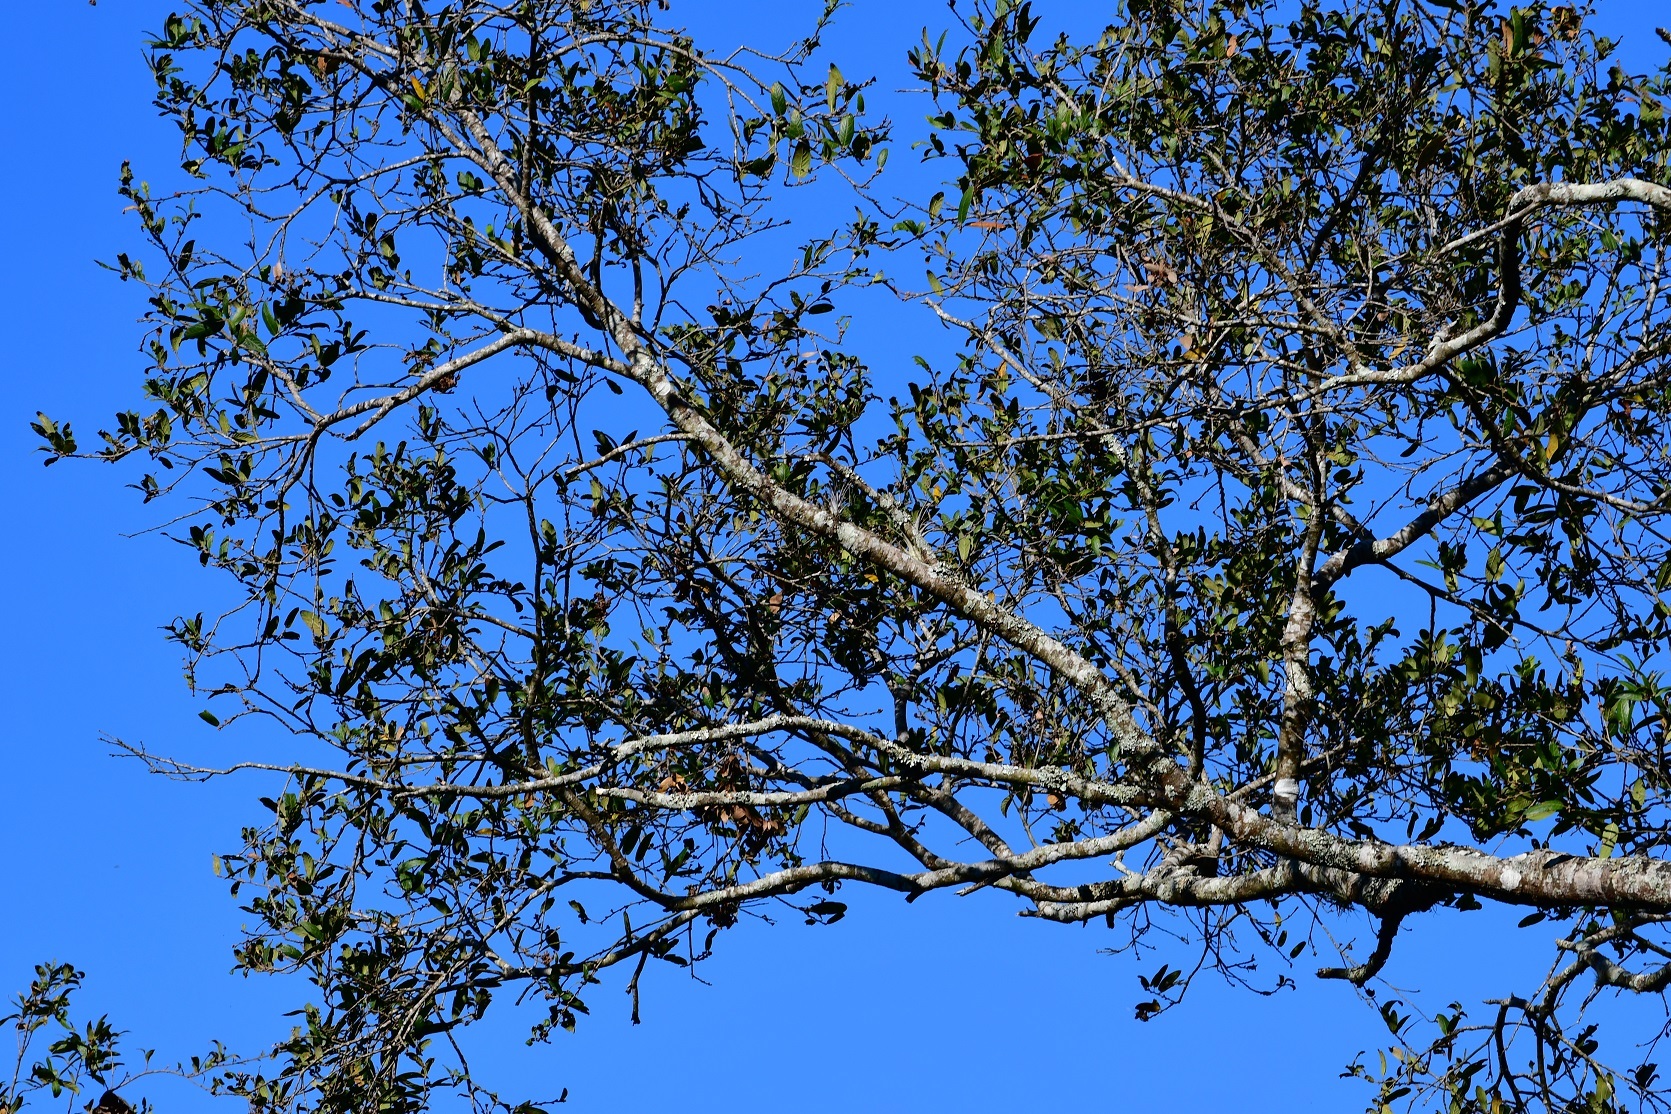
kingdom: Plantae
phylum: Tracheophyta
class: Magnoliopsida
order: Fagales
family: Fagaceae
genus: Quercus
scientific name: Quercus castanea
